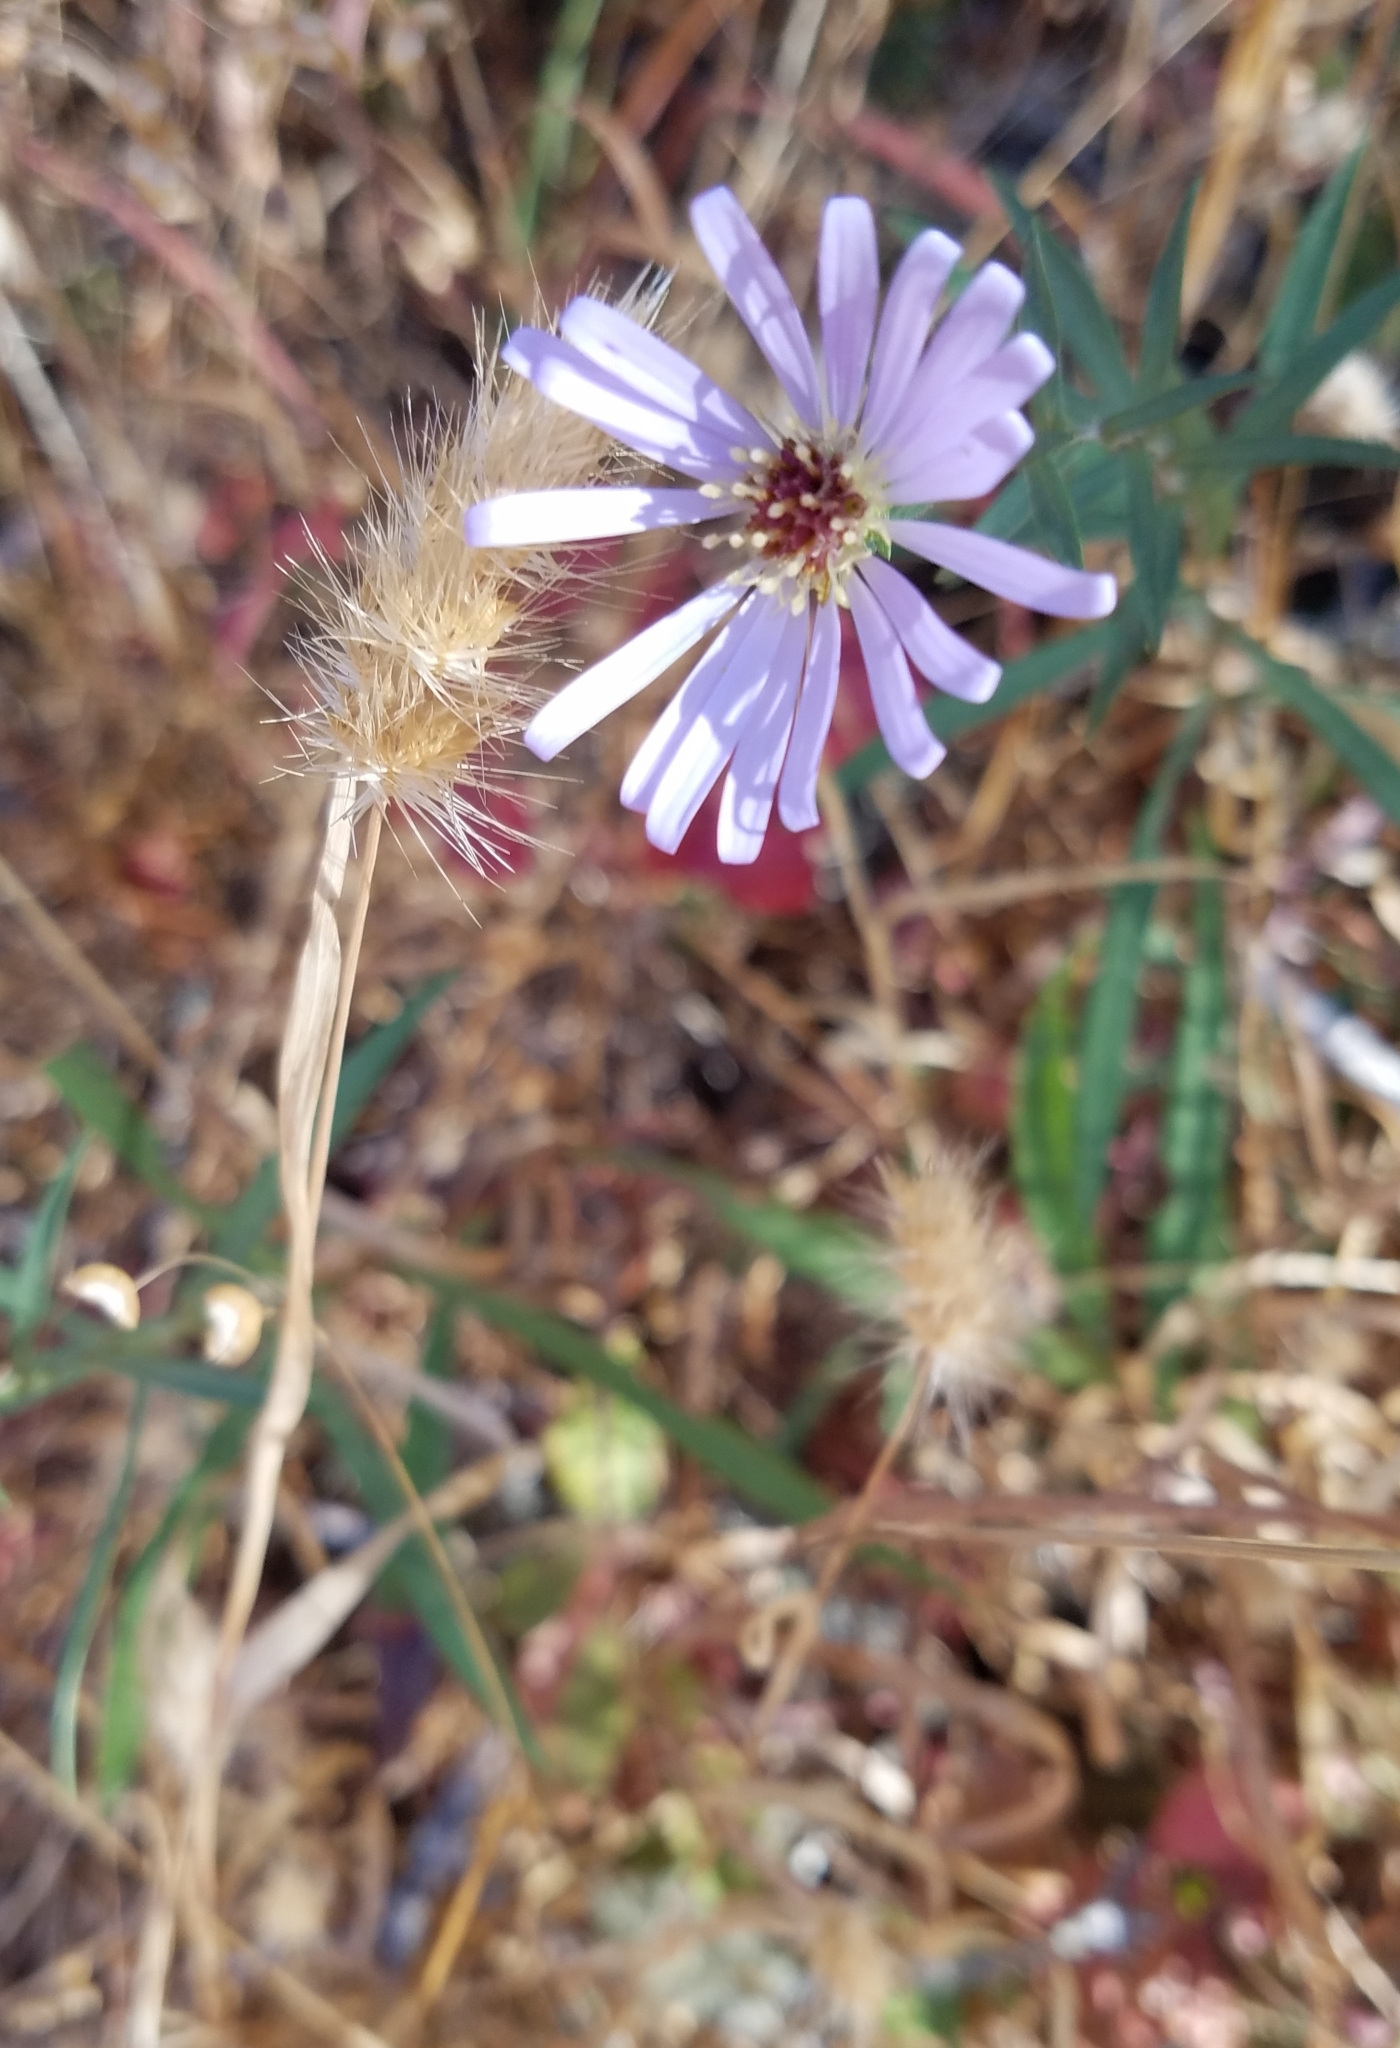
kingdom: Plantae
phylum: Tracheophyta
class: Magnoliopsida
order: Asterales
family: Asteraceae
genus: Symphyotrichum
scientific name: Symphyotrichum chilense
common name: Pacific aster
